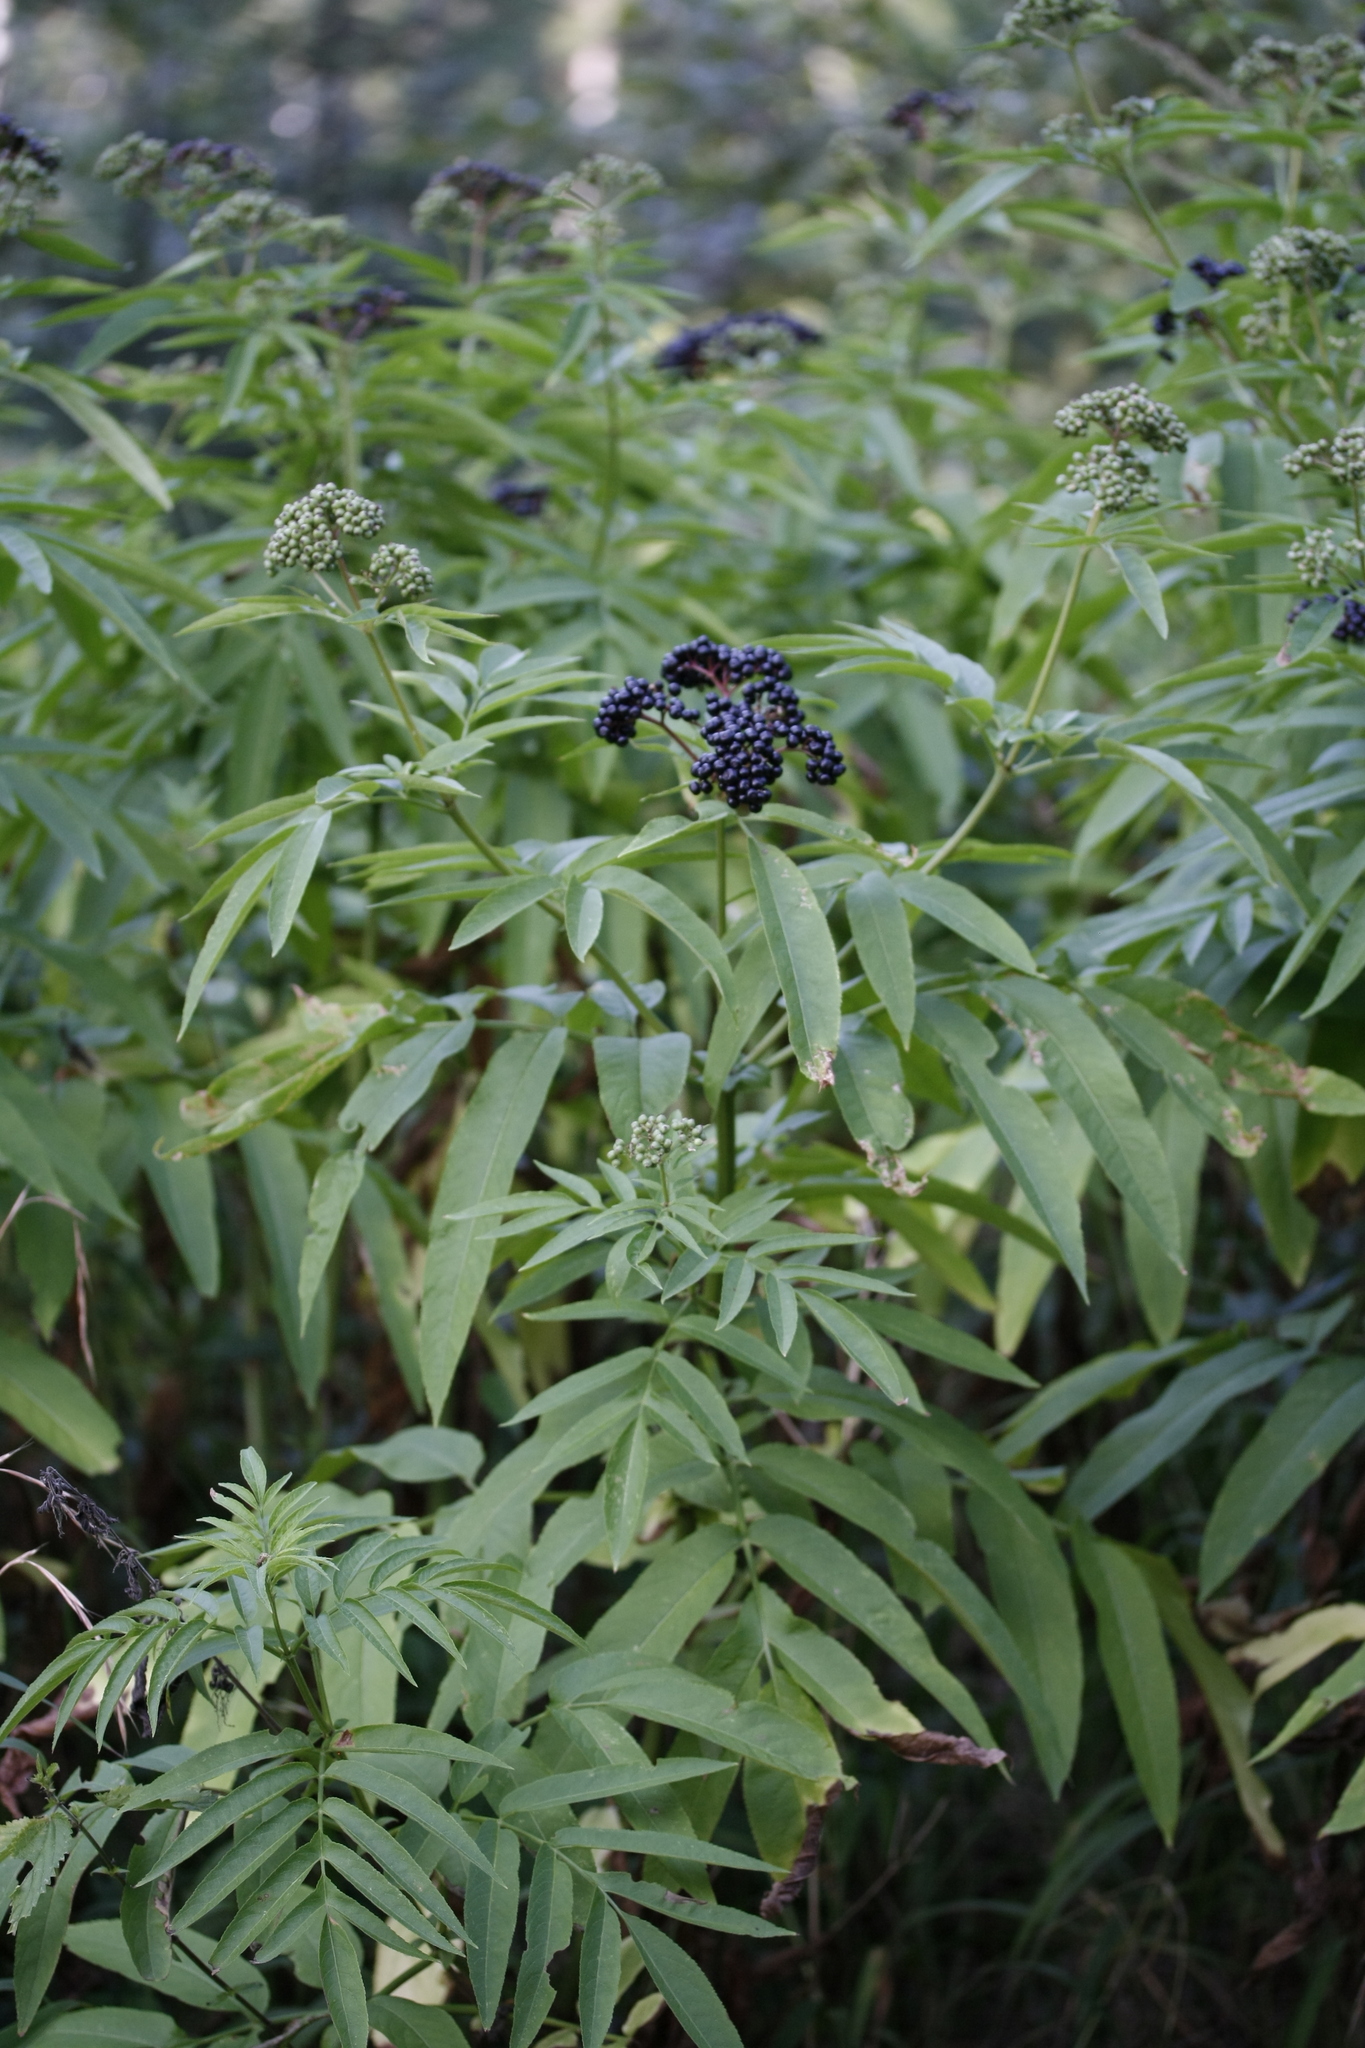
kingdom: Plantae
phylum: Tracheophyta
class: Magnoliopsida
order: Dipsacales
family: Viburnaceae
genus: Sambucus
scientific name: Sambucus ebulus
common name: Dwarf elder
